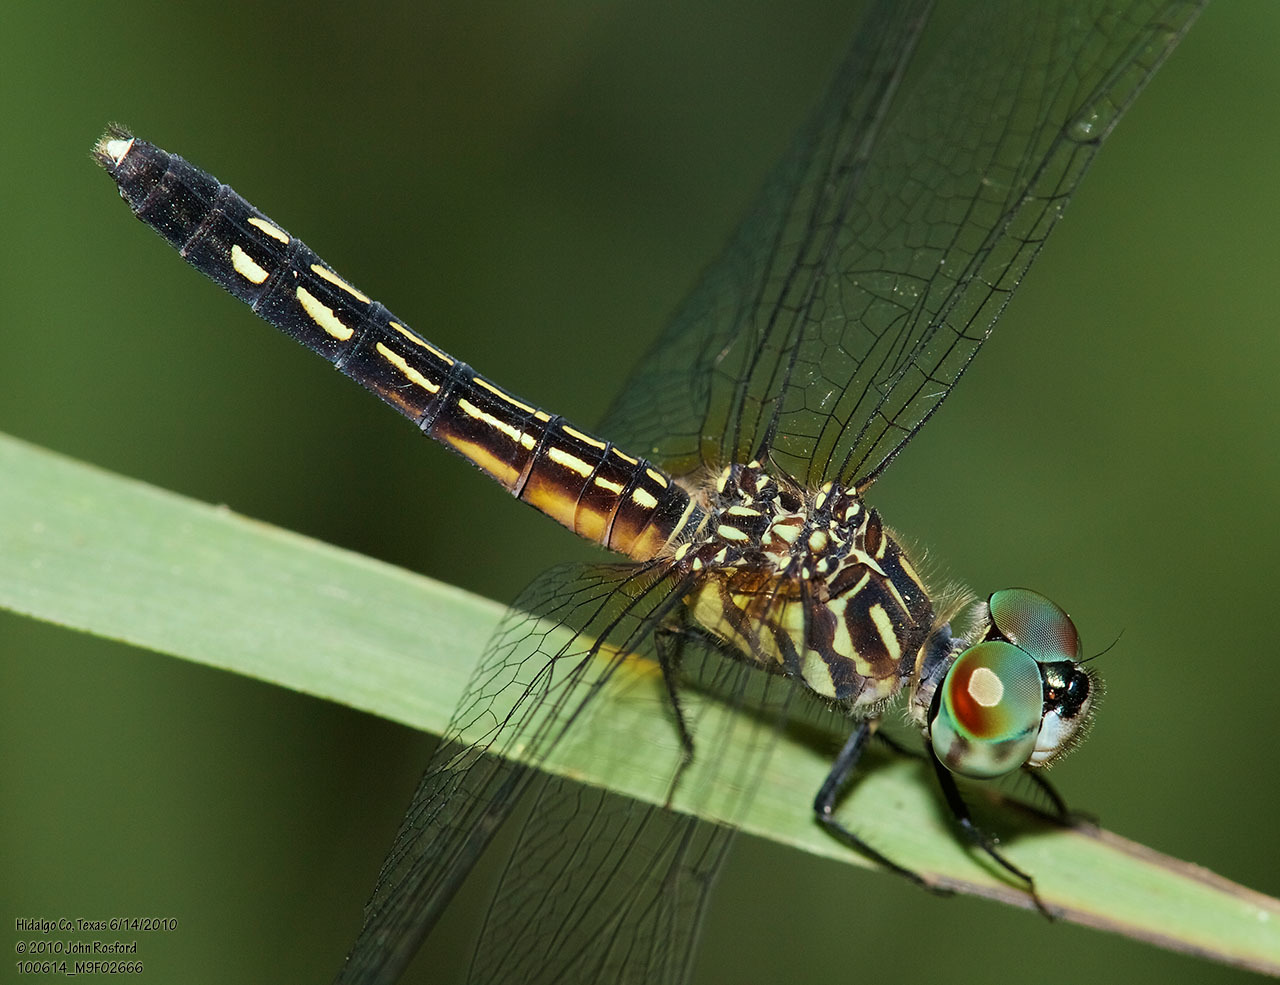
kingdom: Animalia
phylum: Arthropoda
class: Insecta
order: Odonata
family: Libellulidae
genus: Pachydiplax
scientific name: Pachydiplax longipennis
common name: Blue dasher
